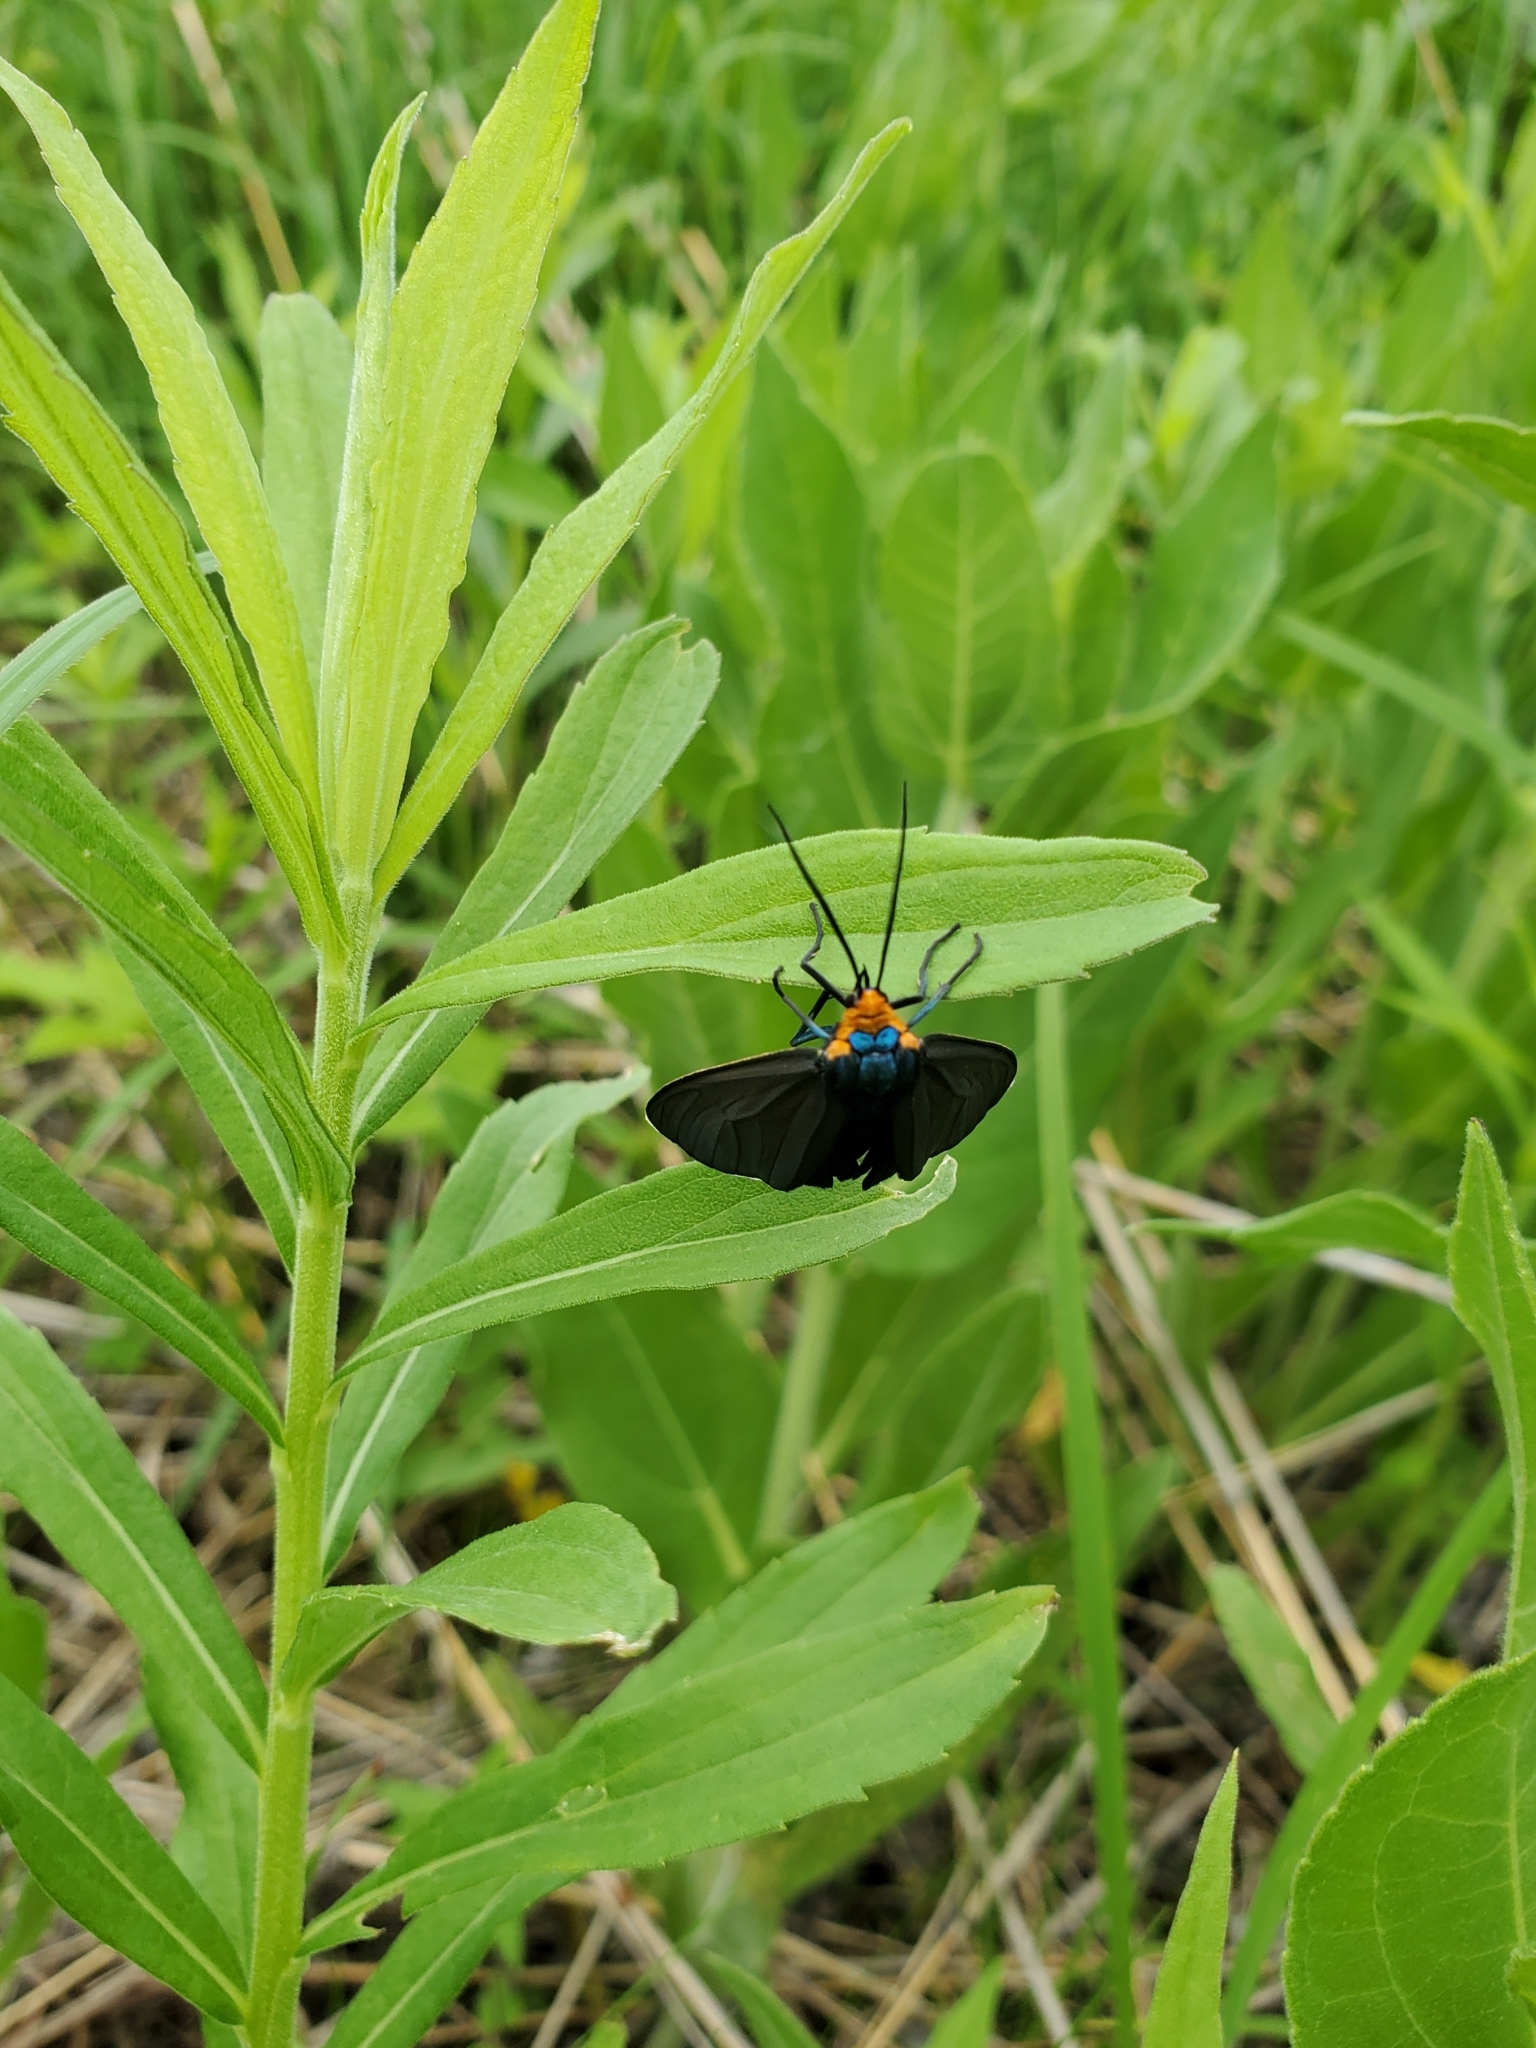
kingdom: Animalia
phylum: Arthropoda
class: Insecta
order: Lepidoptera
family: Erebidae
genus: Ctenucha
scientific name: Ctenucha virginica
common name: Virginia ctenucha moth
